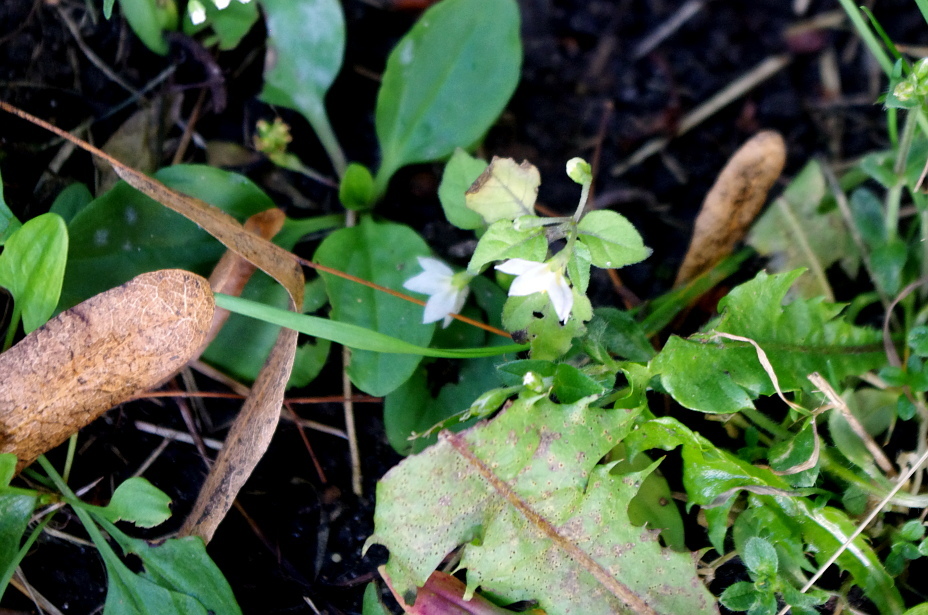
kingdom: Plantae
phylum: Tracheophyta
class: Magnoliopsida
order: Solanales
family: Solanaceae
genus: Solanum
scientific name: Solanum nigrum
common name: Black nightshade
